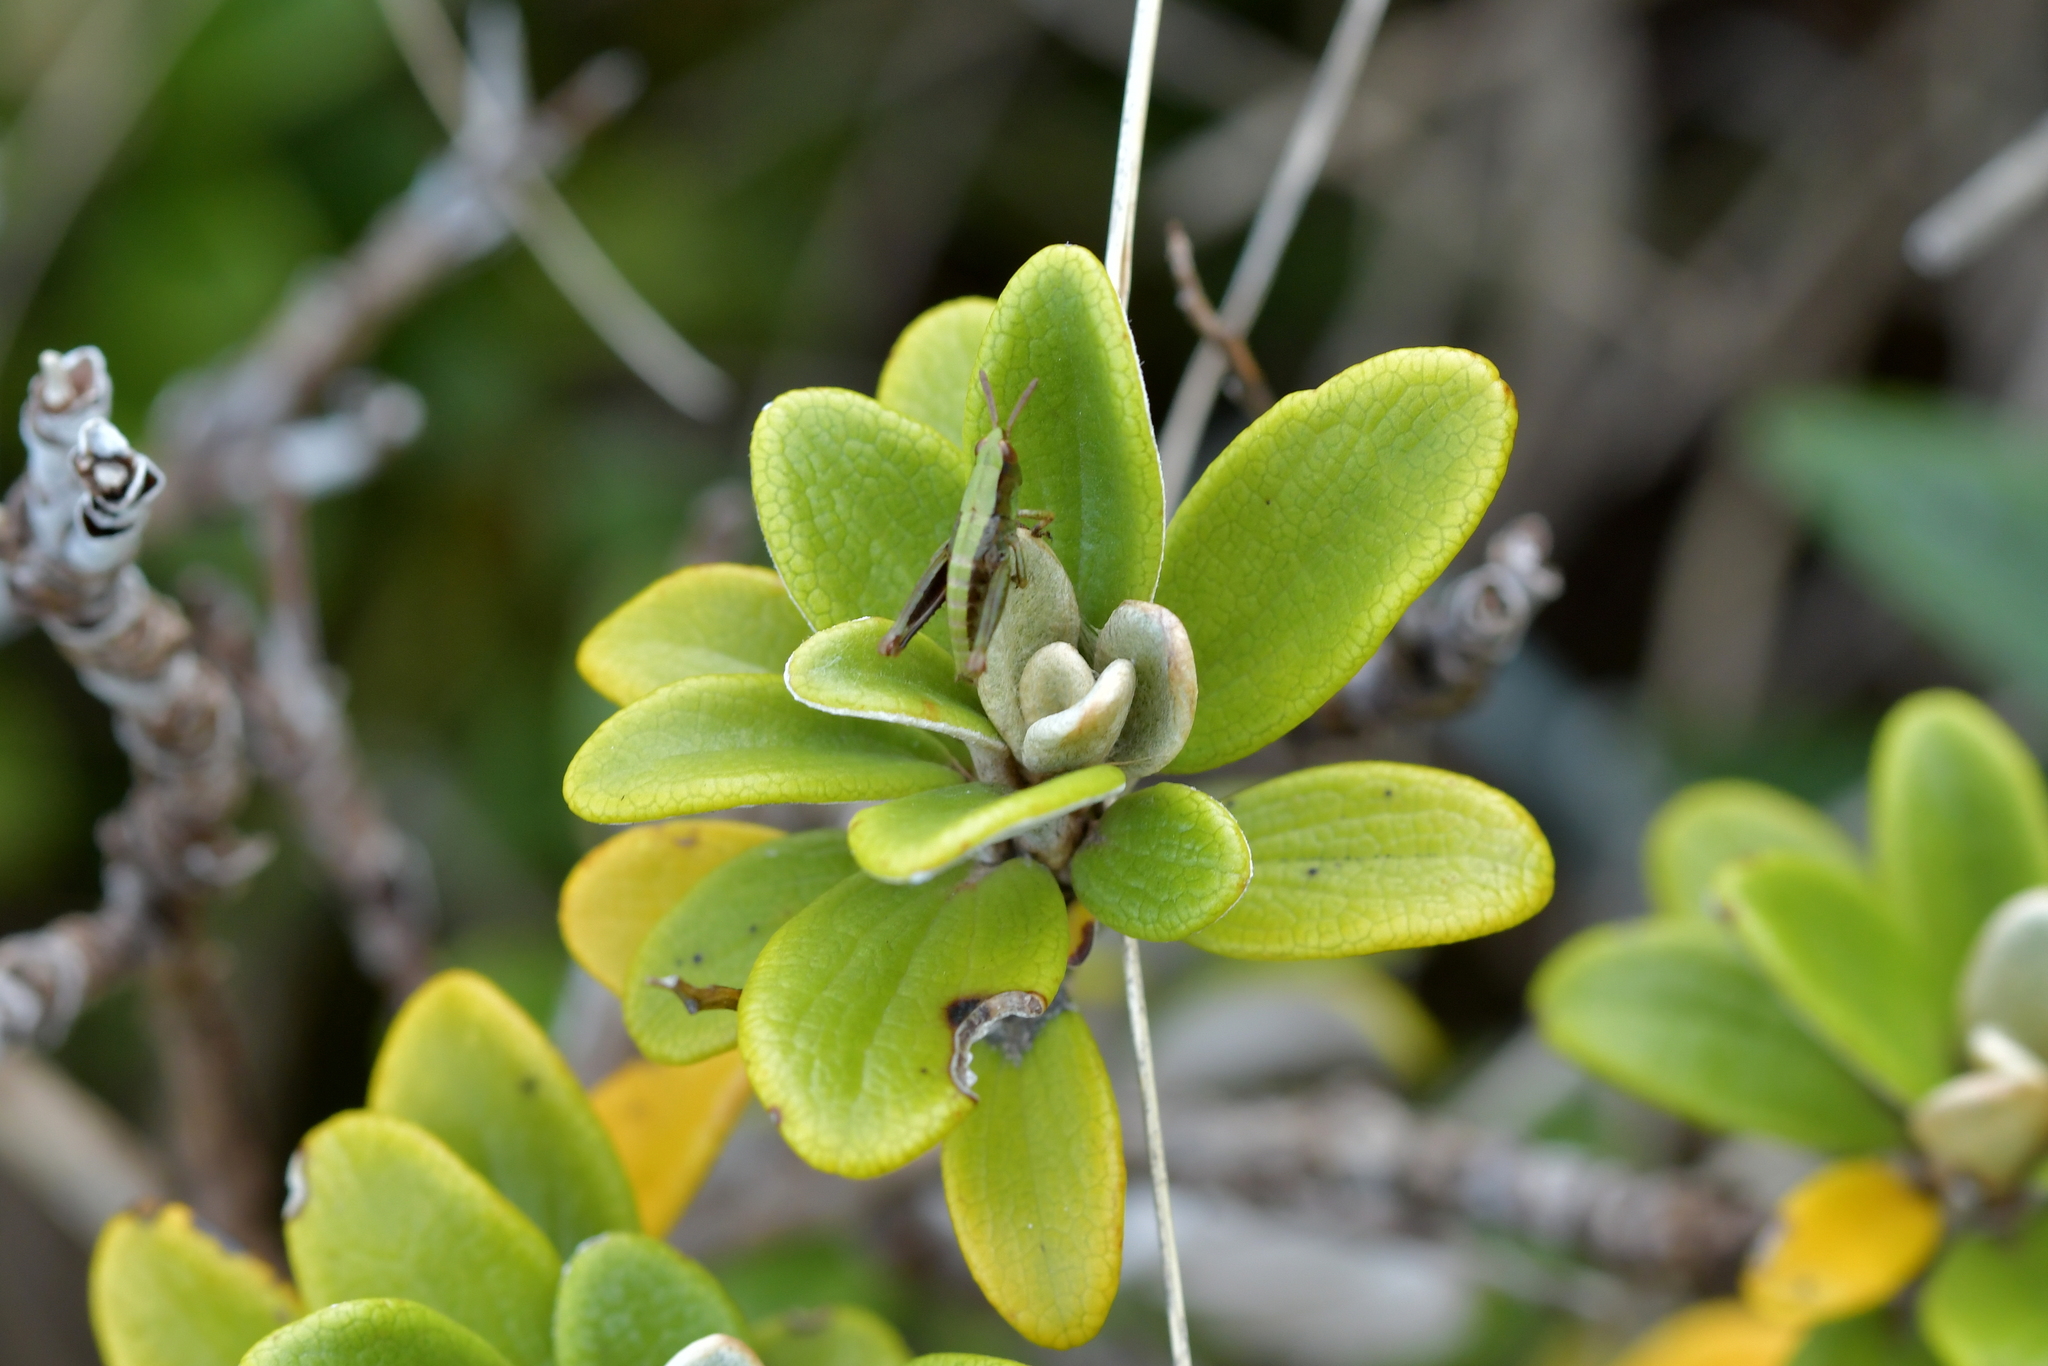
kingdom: Animalia
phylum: Arthropoda
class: Insecta
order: Orthoptera
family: Acrididae
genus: Sigaus
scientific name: Sigaus piliferus
